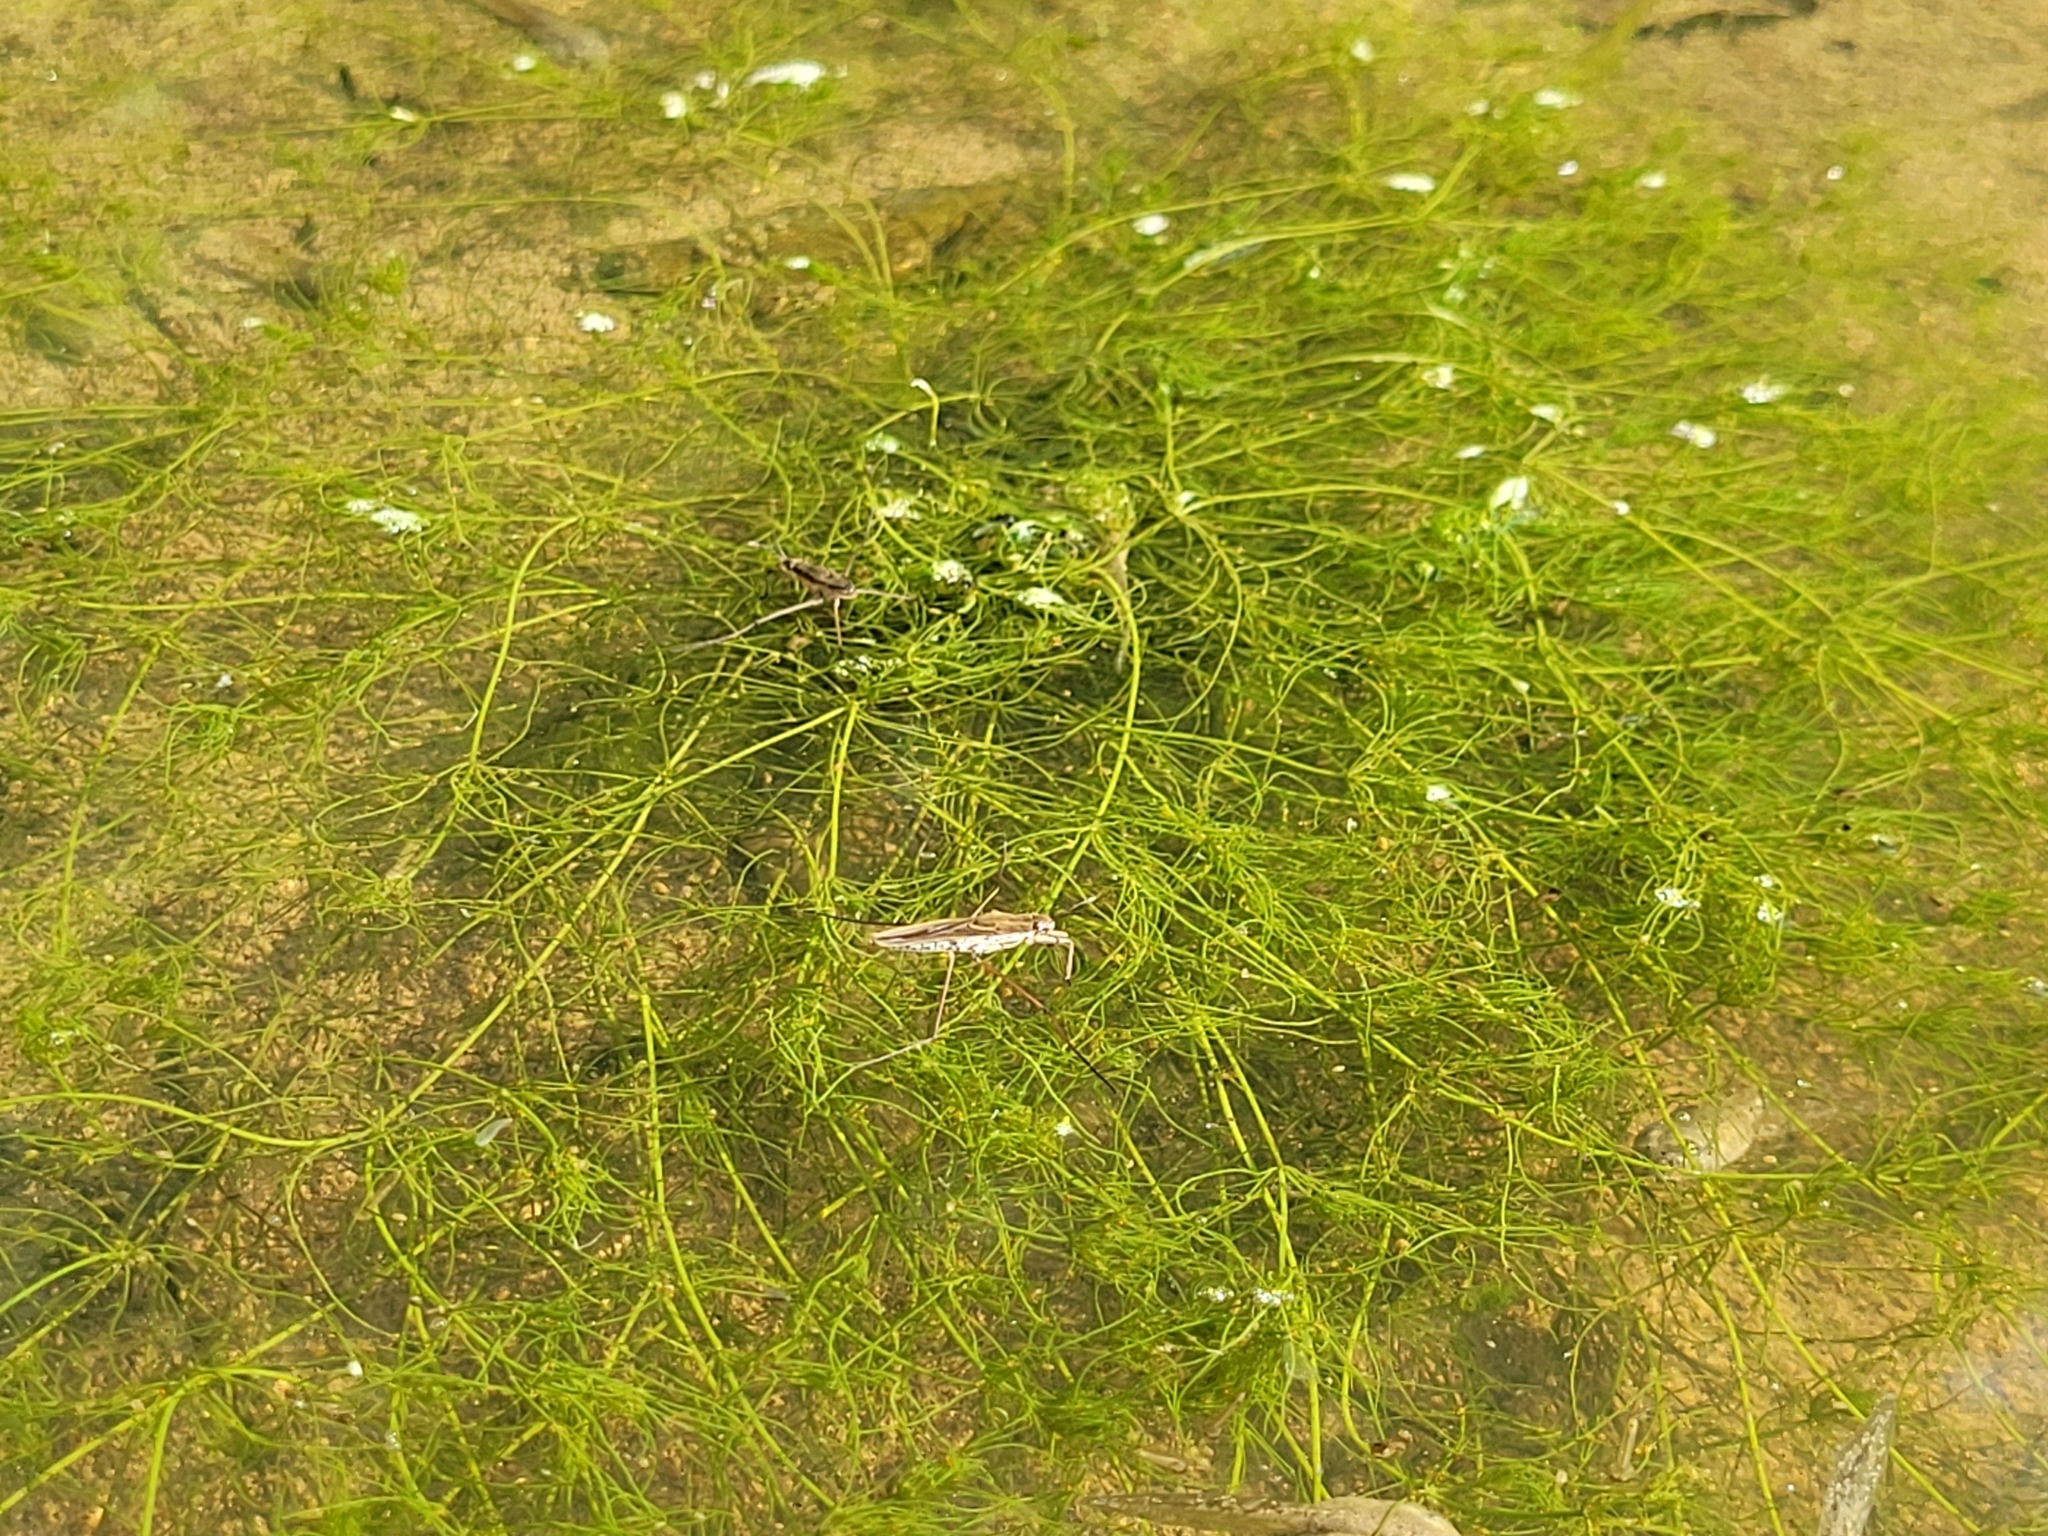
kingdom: Plantae
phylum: Charophyta
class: Charophyceae
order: Charales
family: Characeae
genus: Chara
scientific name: Chara vulgaris
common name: Common stonewort
